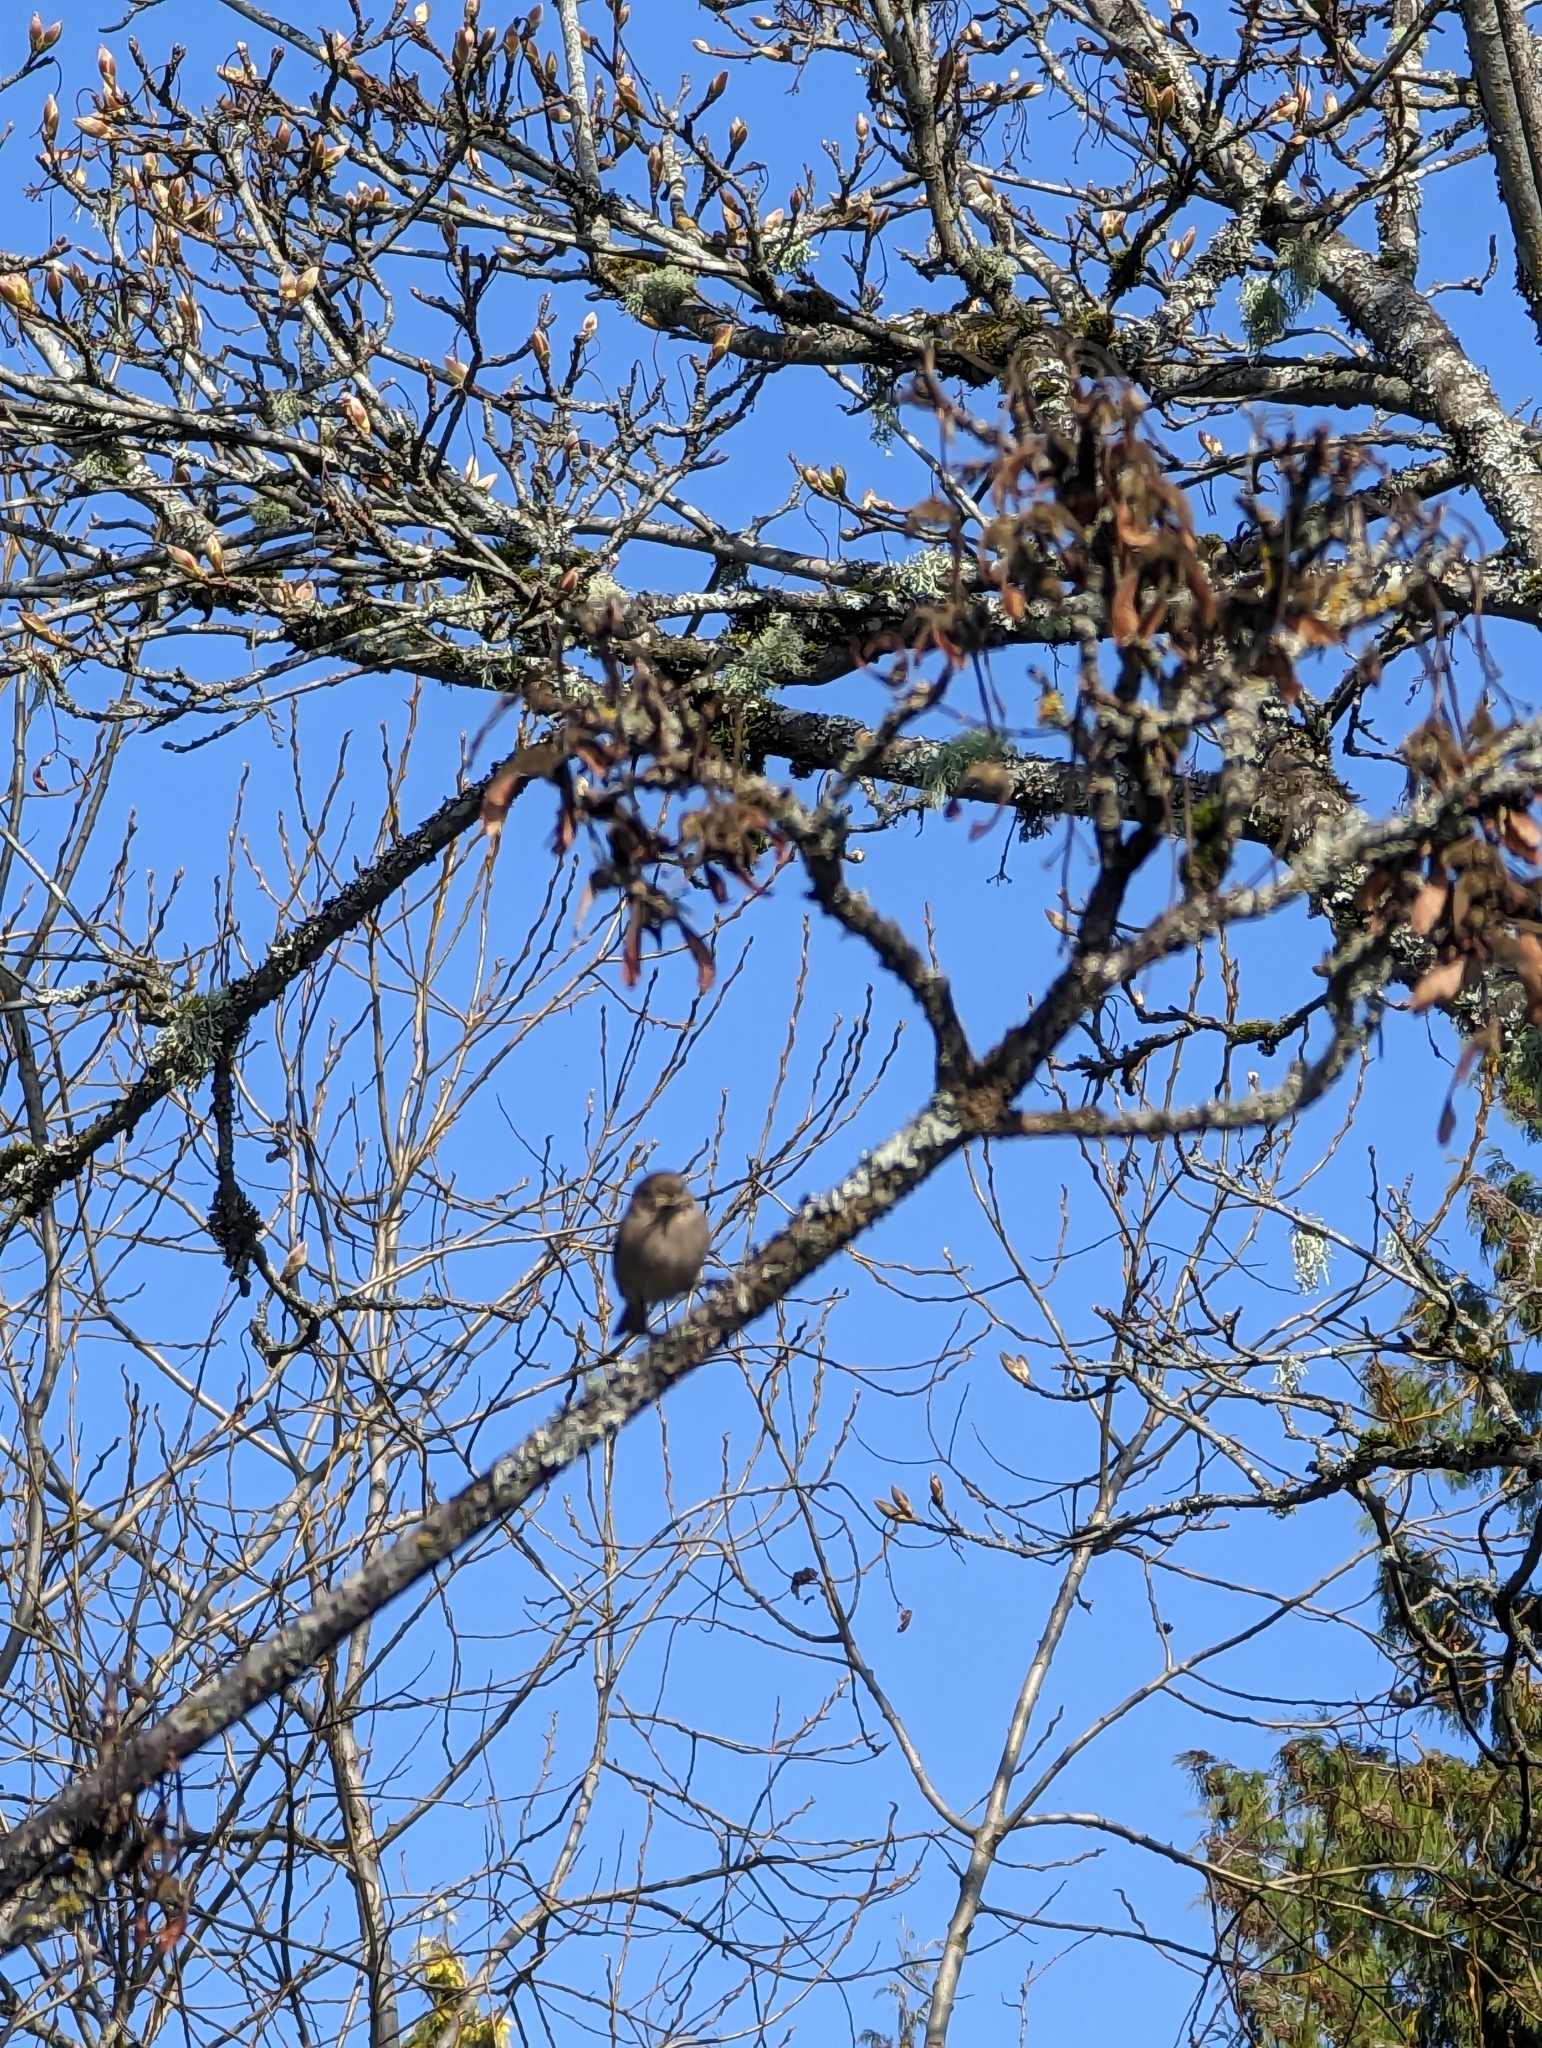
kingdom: Animalia
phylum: Chordata
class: Aves
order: Passeriformes
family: Aegithalidae
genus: Psaltriparus
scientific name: Psaltriparus minimus
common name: American bushtit
